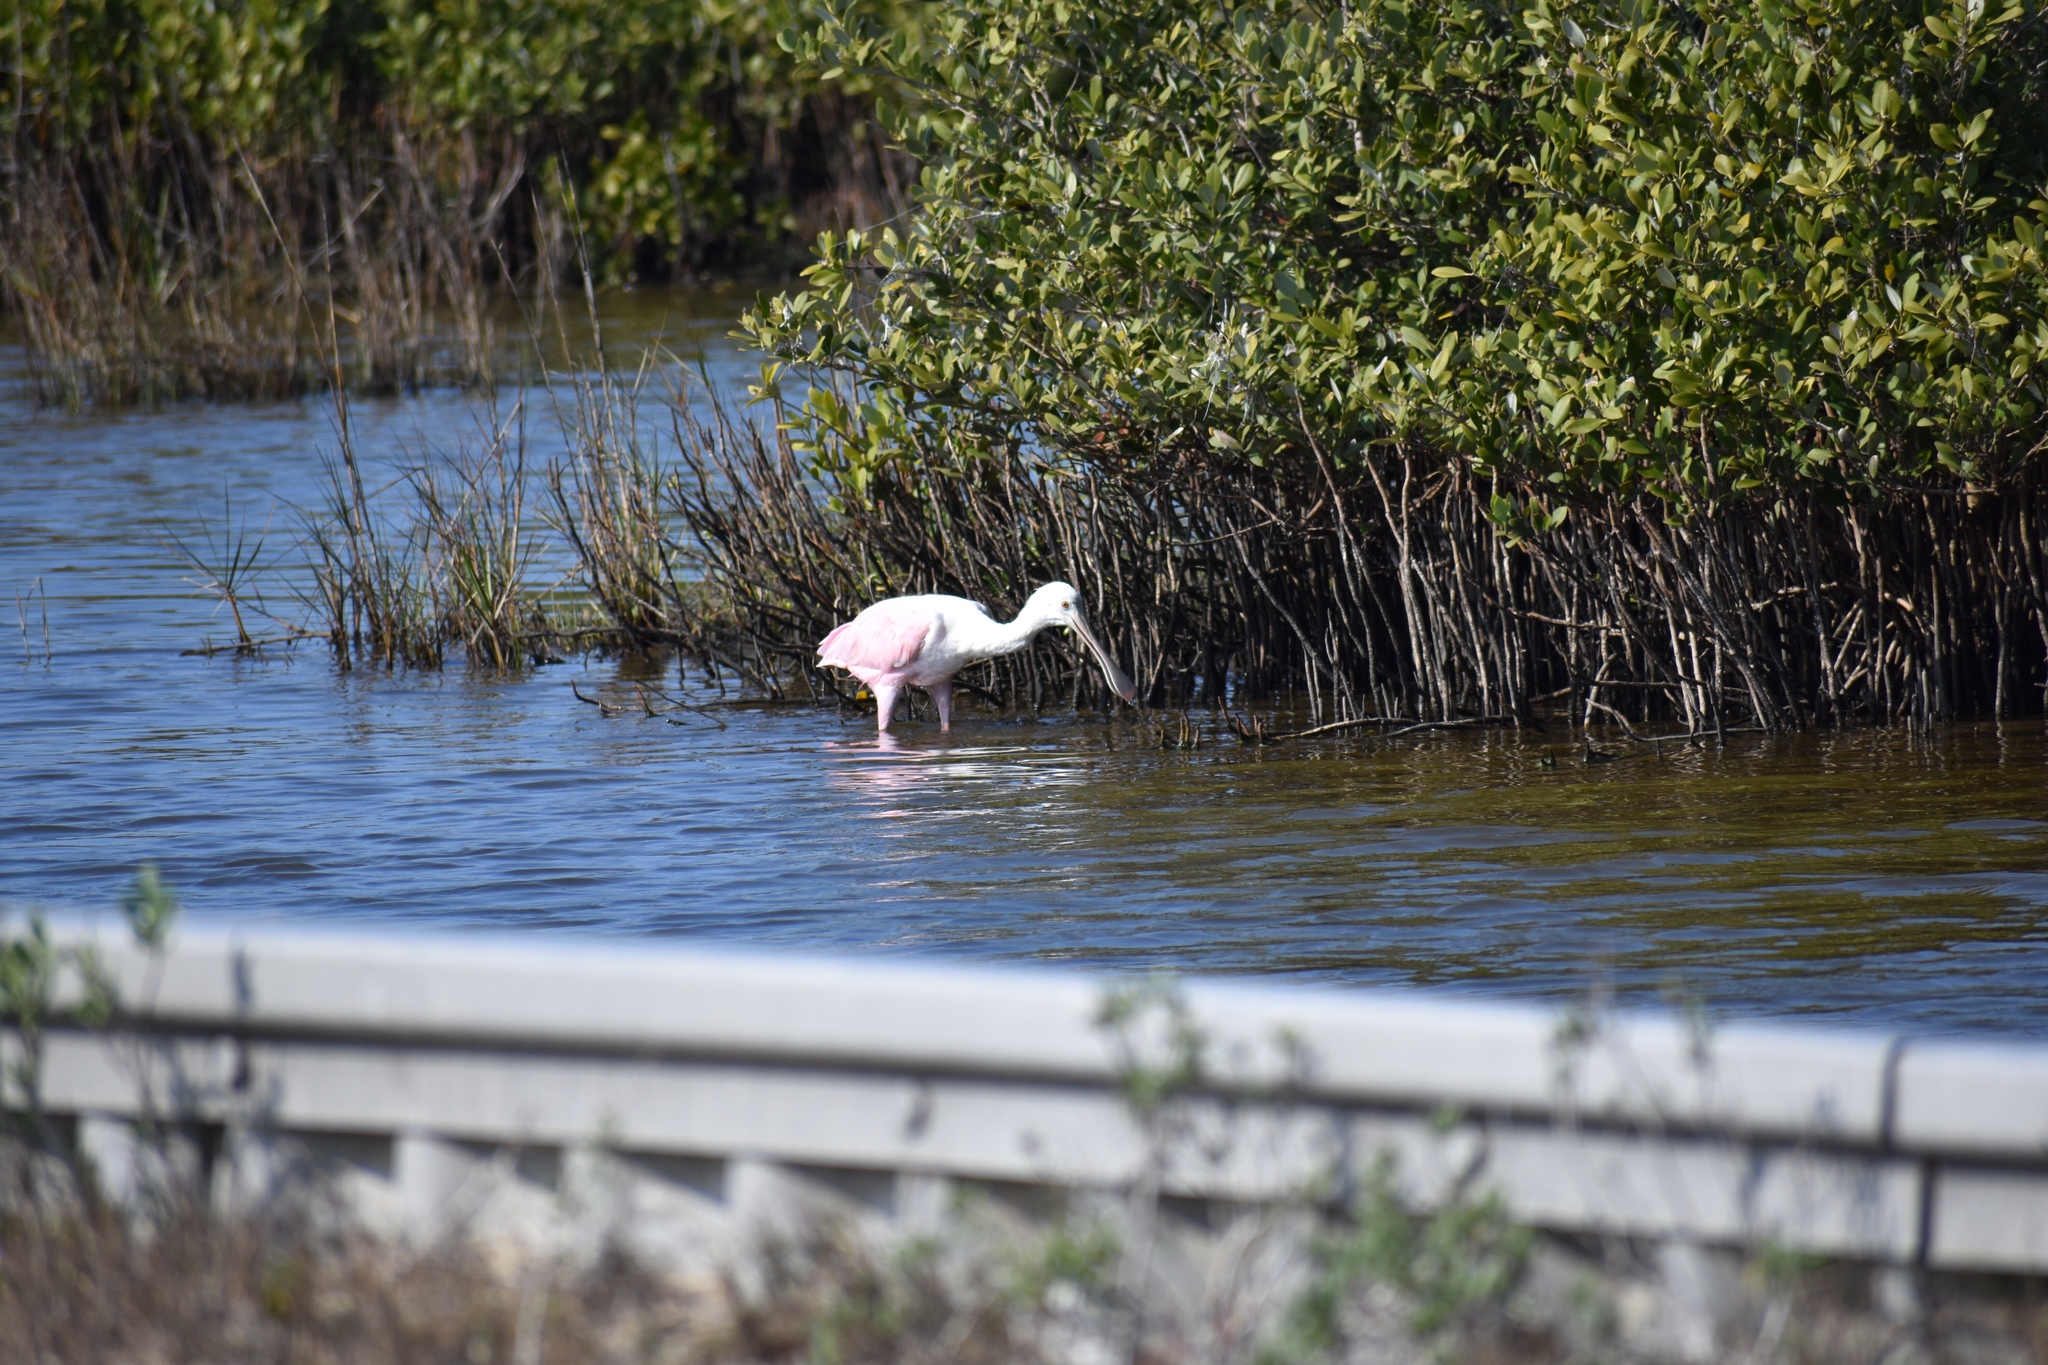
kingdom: Animalia
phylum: Chordata
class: Aves
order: Pelecaniformes
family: Threskiornithidae
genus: Platalea
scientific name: Platalea ajaja
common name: Roseate spoonbill
